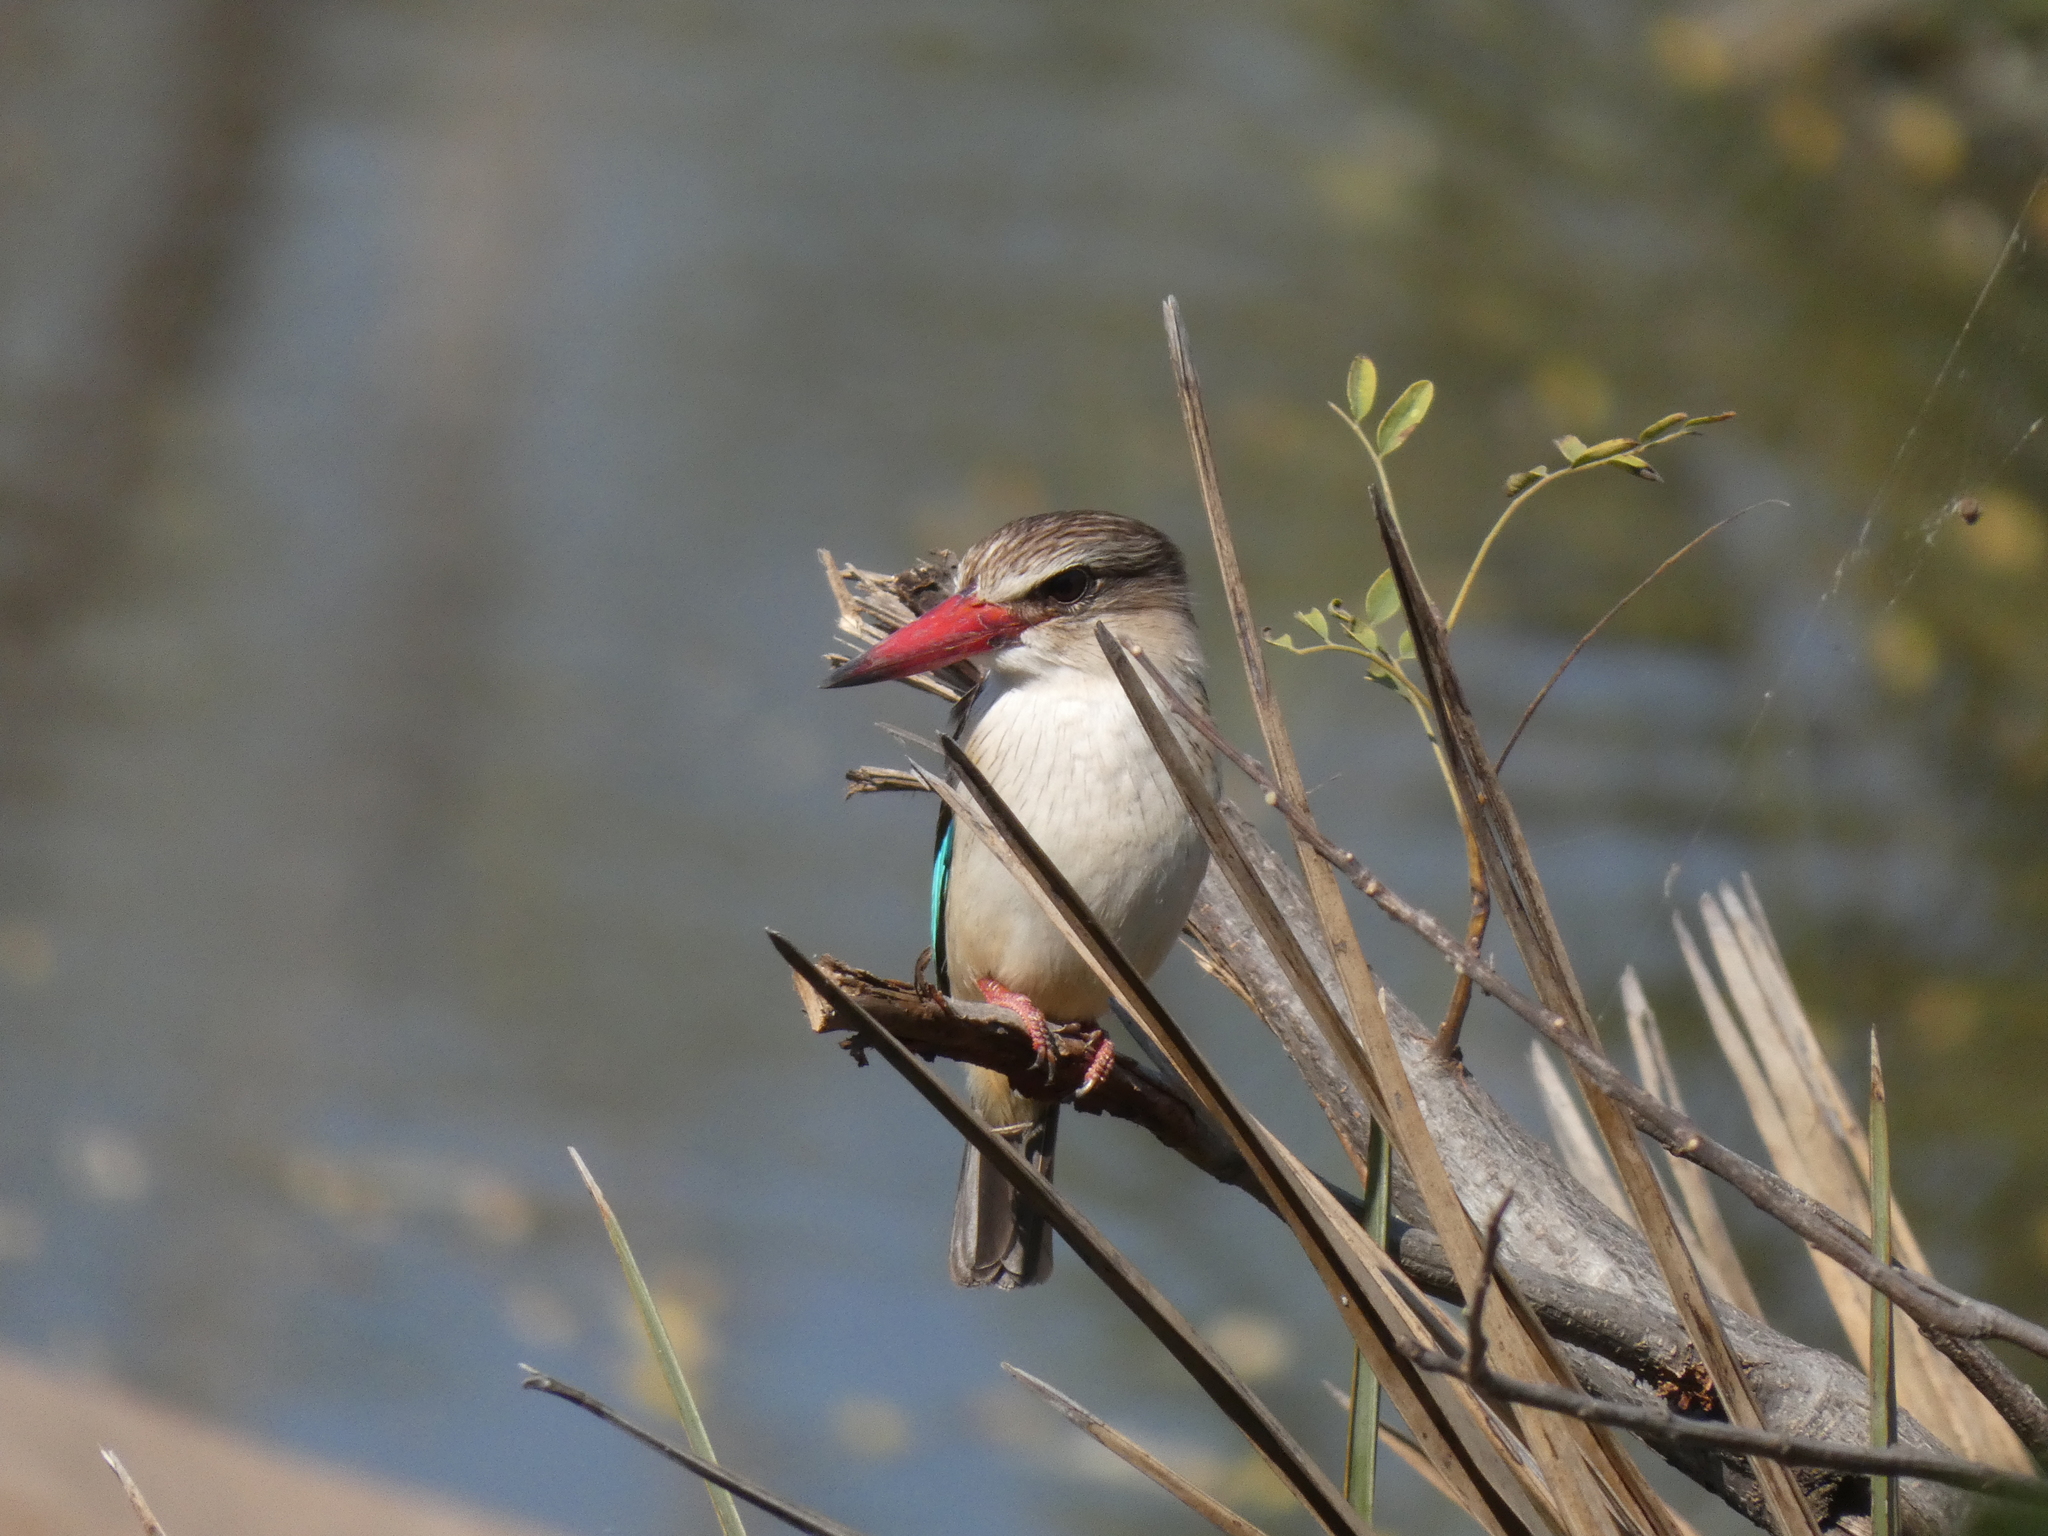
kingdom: Animalia
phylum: Chordata
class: Aves
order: Coraciiformes
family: Alcedinidae
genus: Halcyon
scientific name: Halcyon albiventris
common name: Brown-hooded kingfisher
